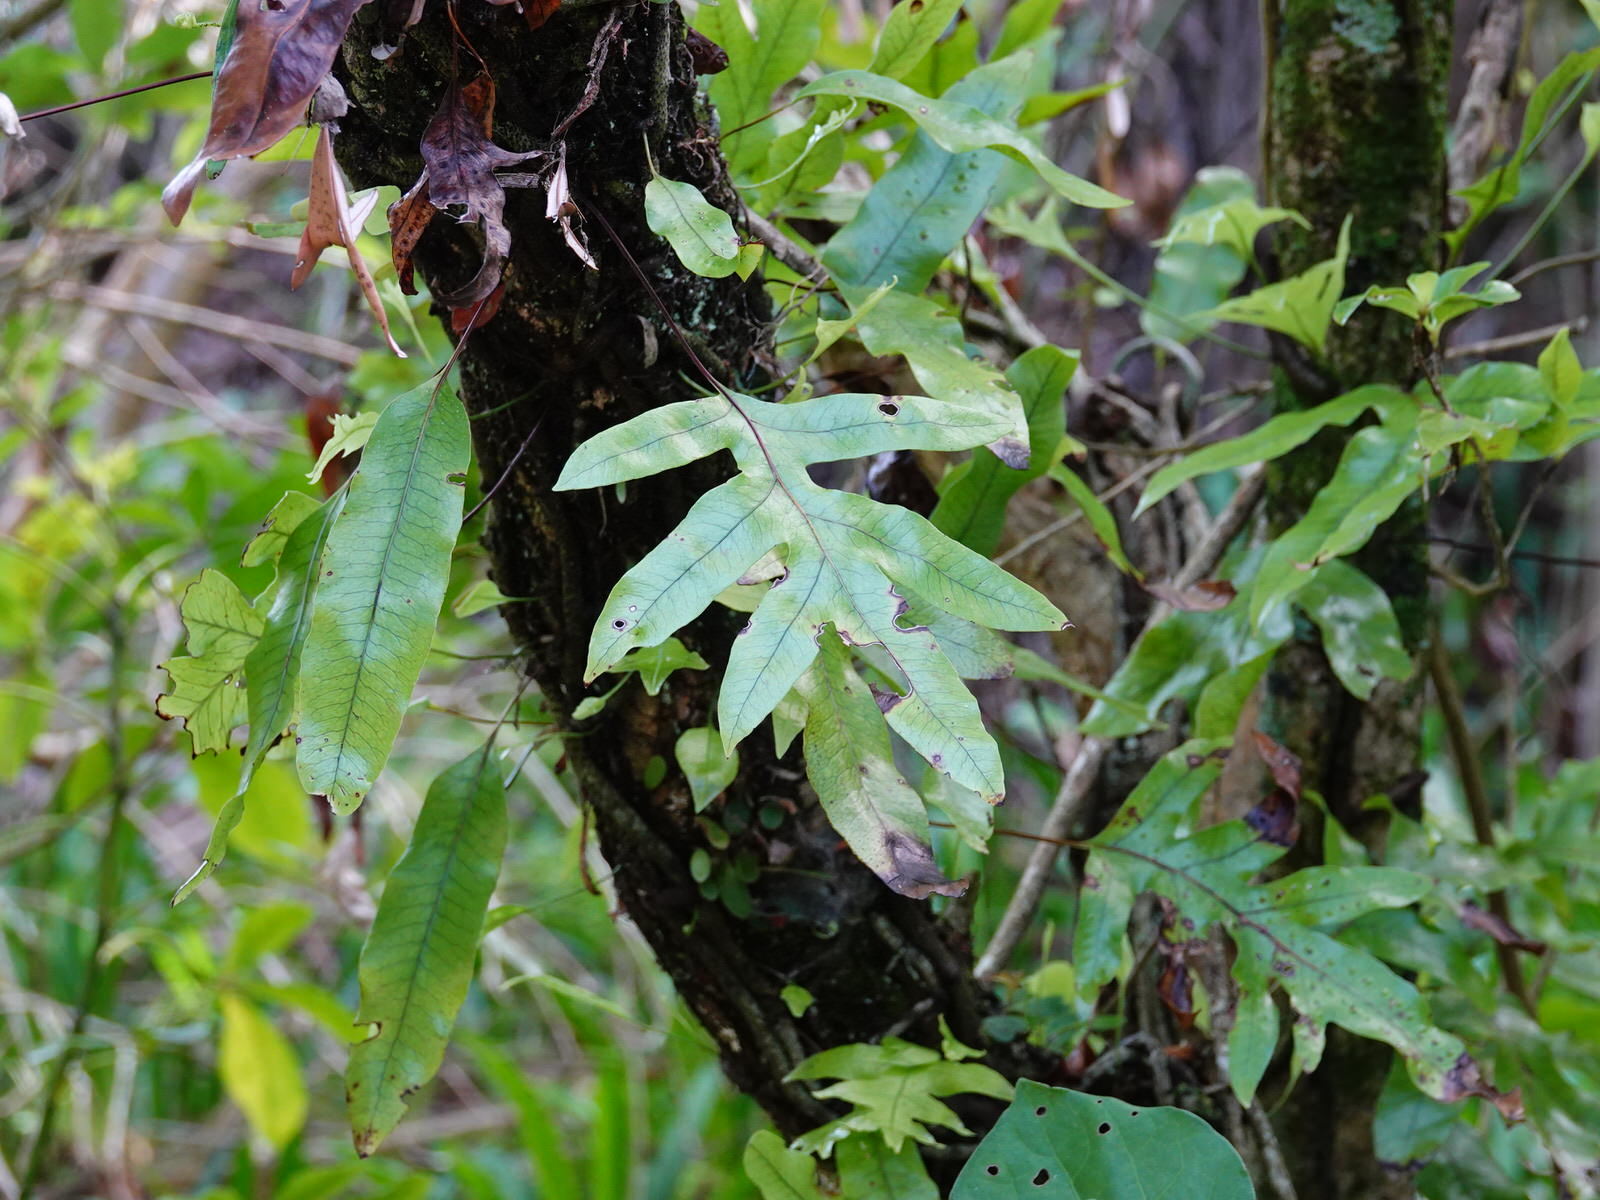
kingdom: Plantae
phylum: Tracheophyta
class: Polypodiopsida
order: Polypodiales
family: Polypodiaceae
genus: Lecanopteris
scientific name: Lecanopteris pustulata
